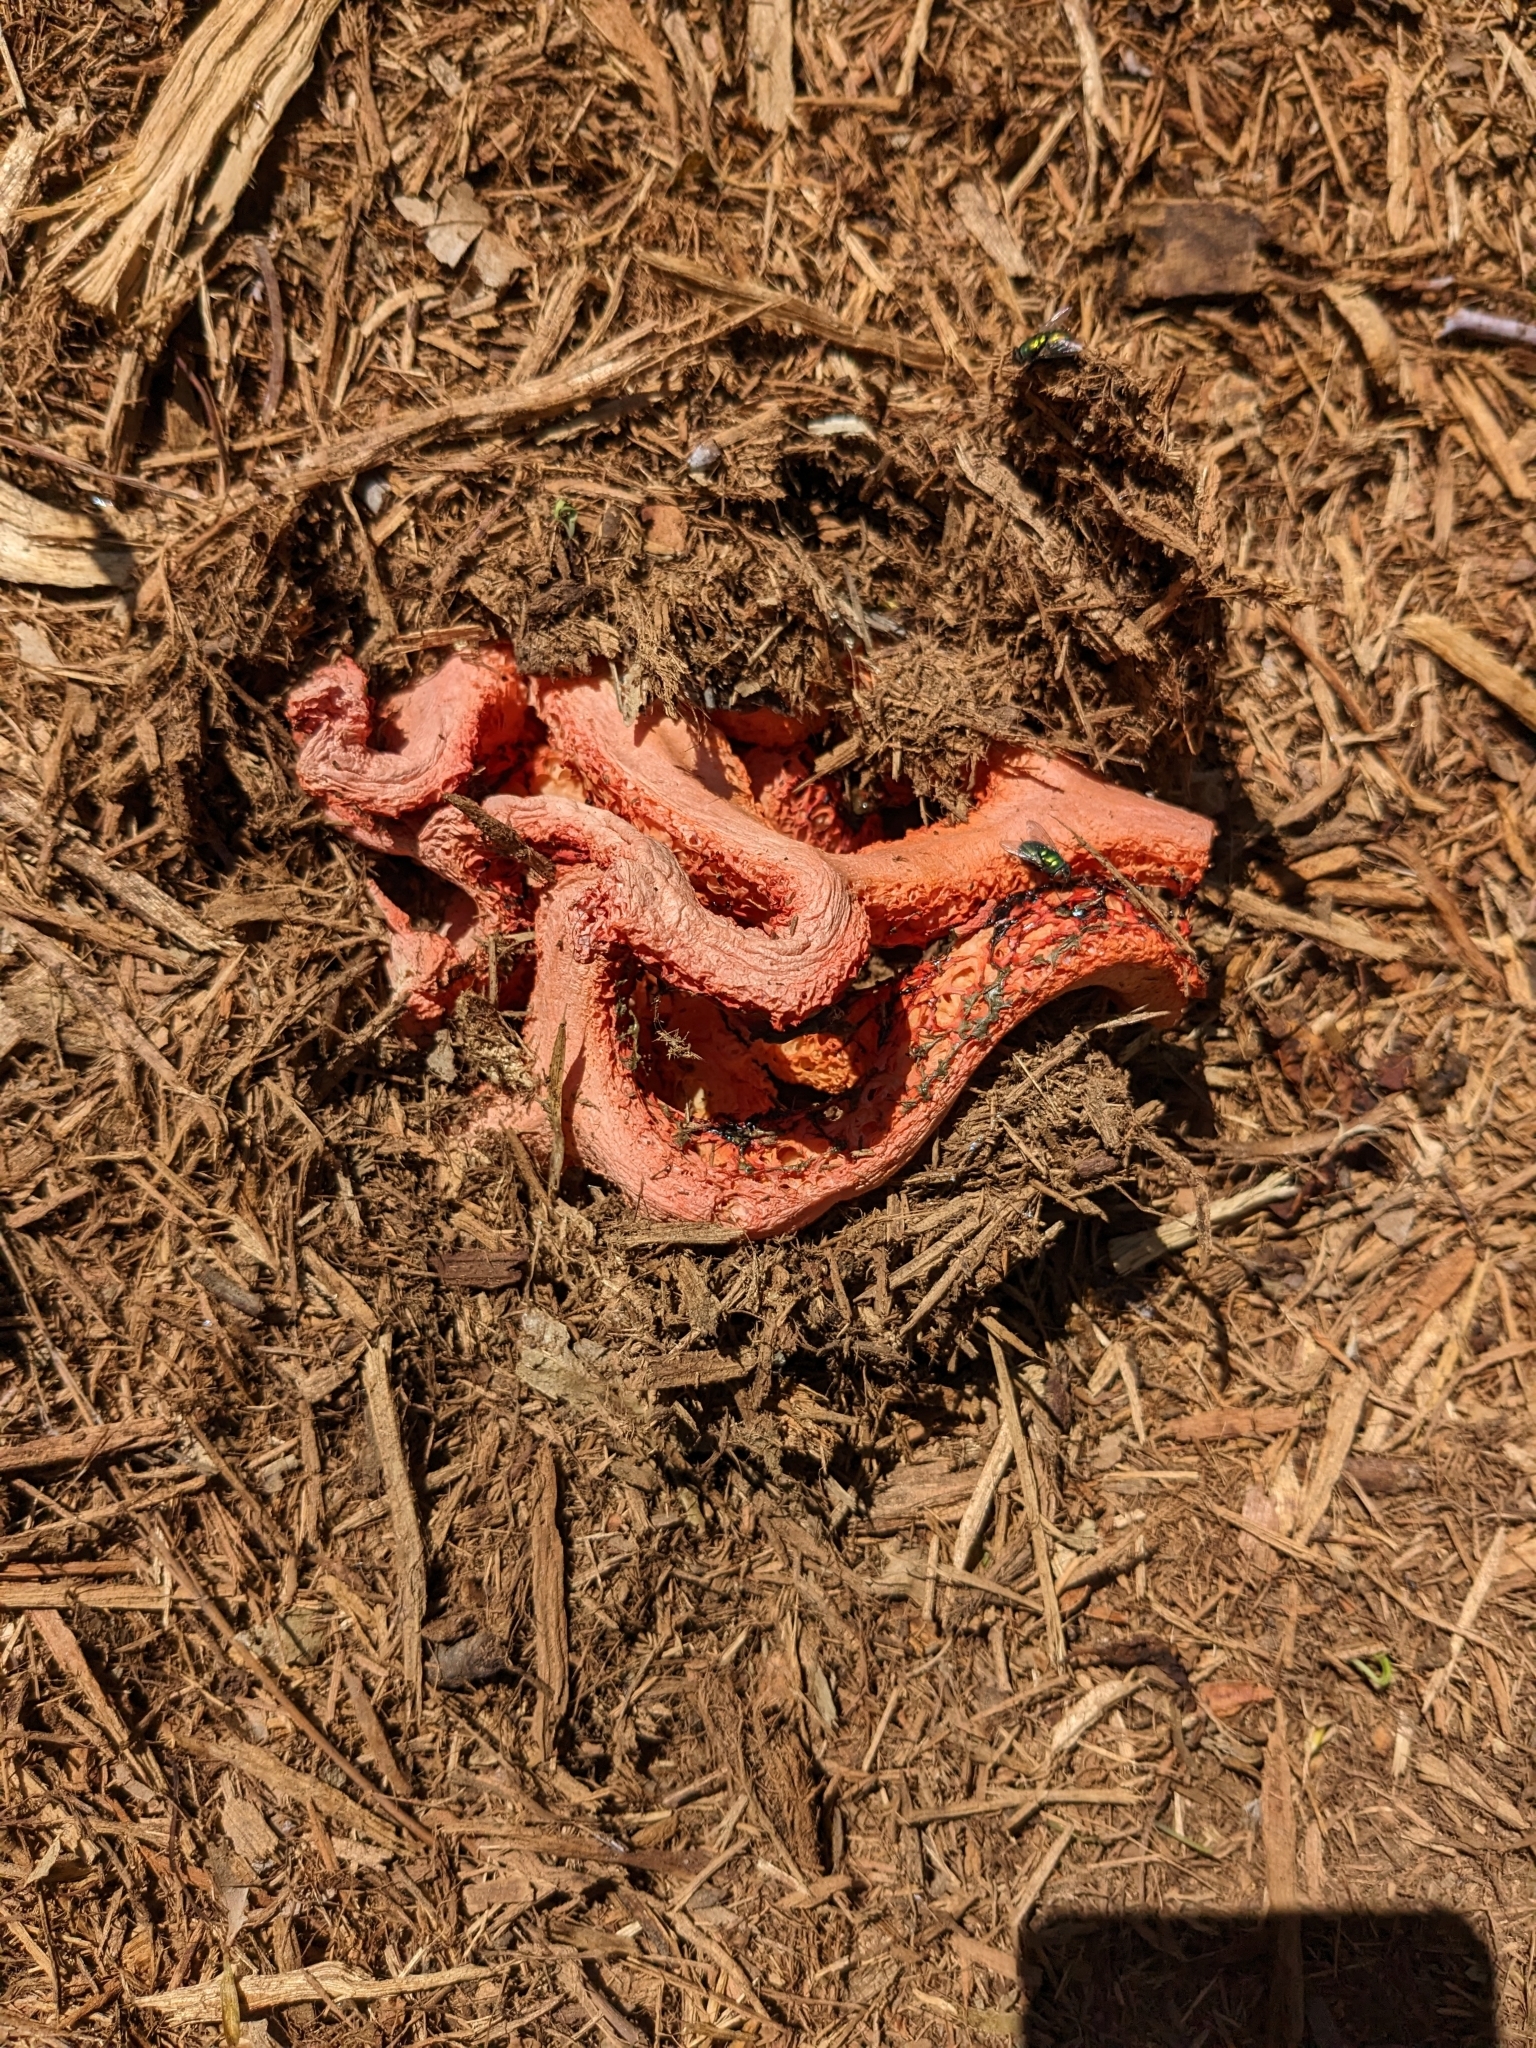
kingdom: Fungi
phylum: Basidiomycota
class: Agaricomycetes
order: Phallales
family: Phallaceae
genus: Clathrus
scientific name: Clathrus ruber
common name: Red cage
